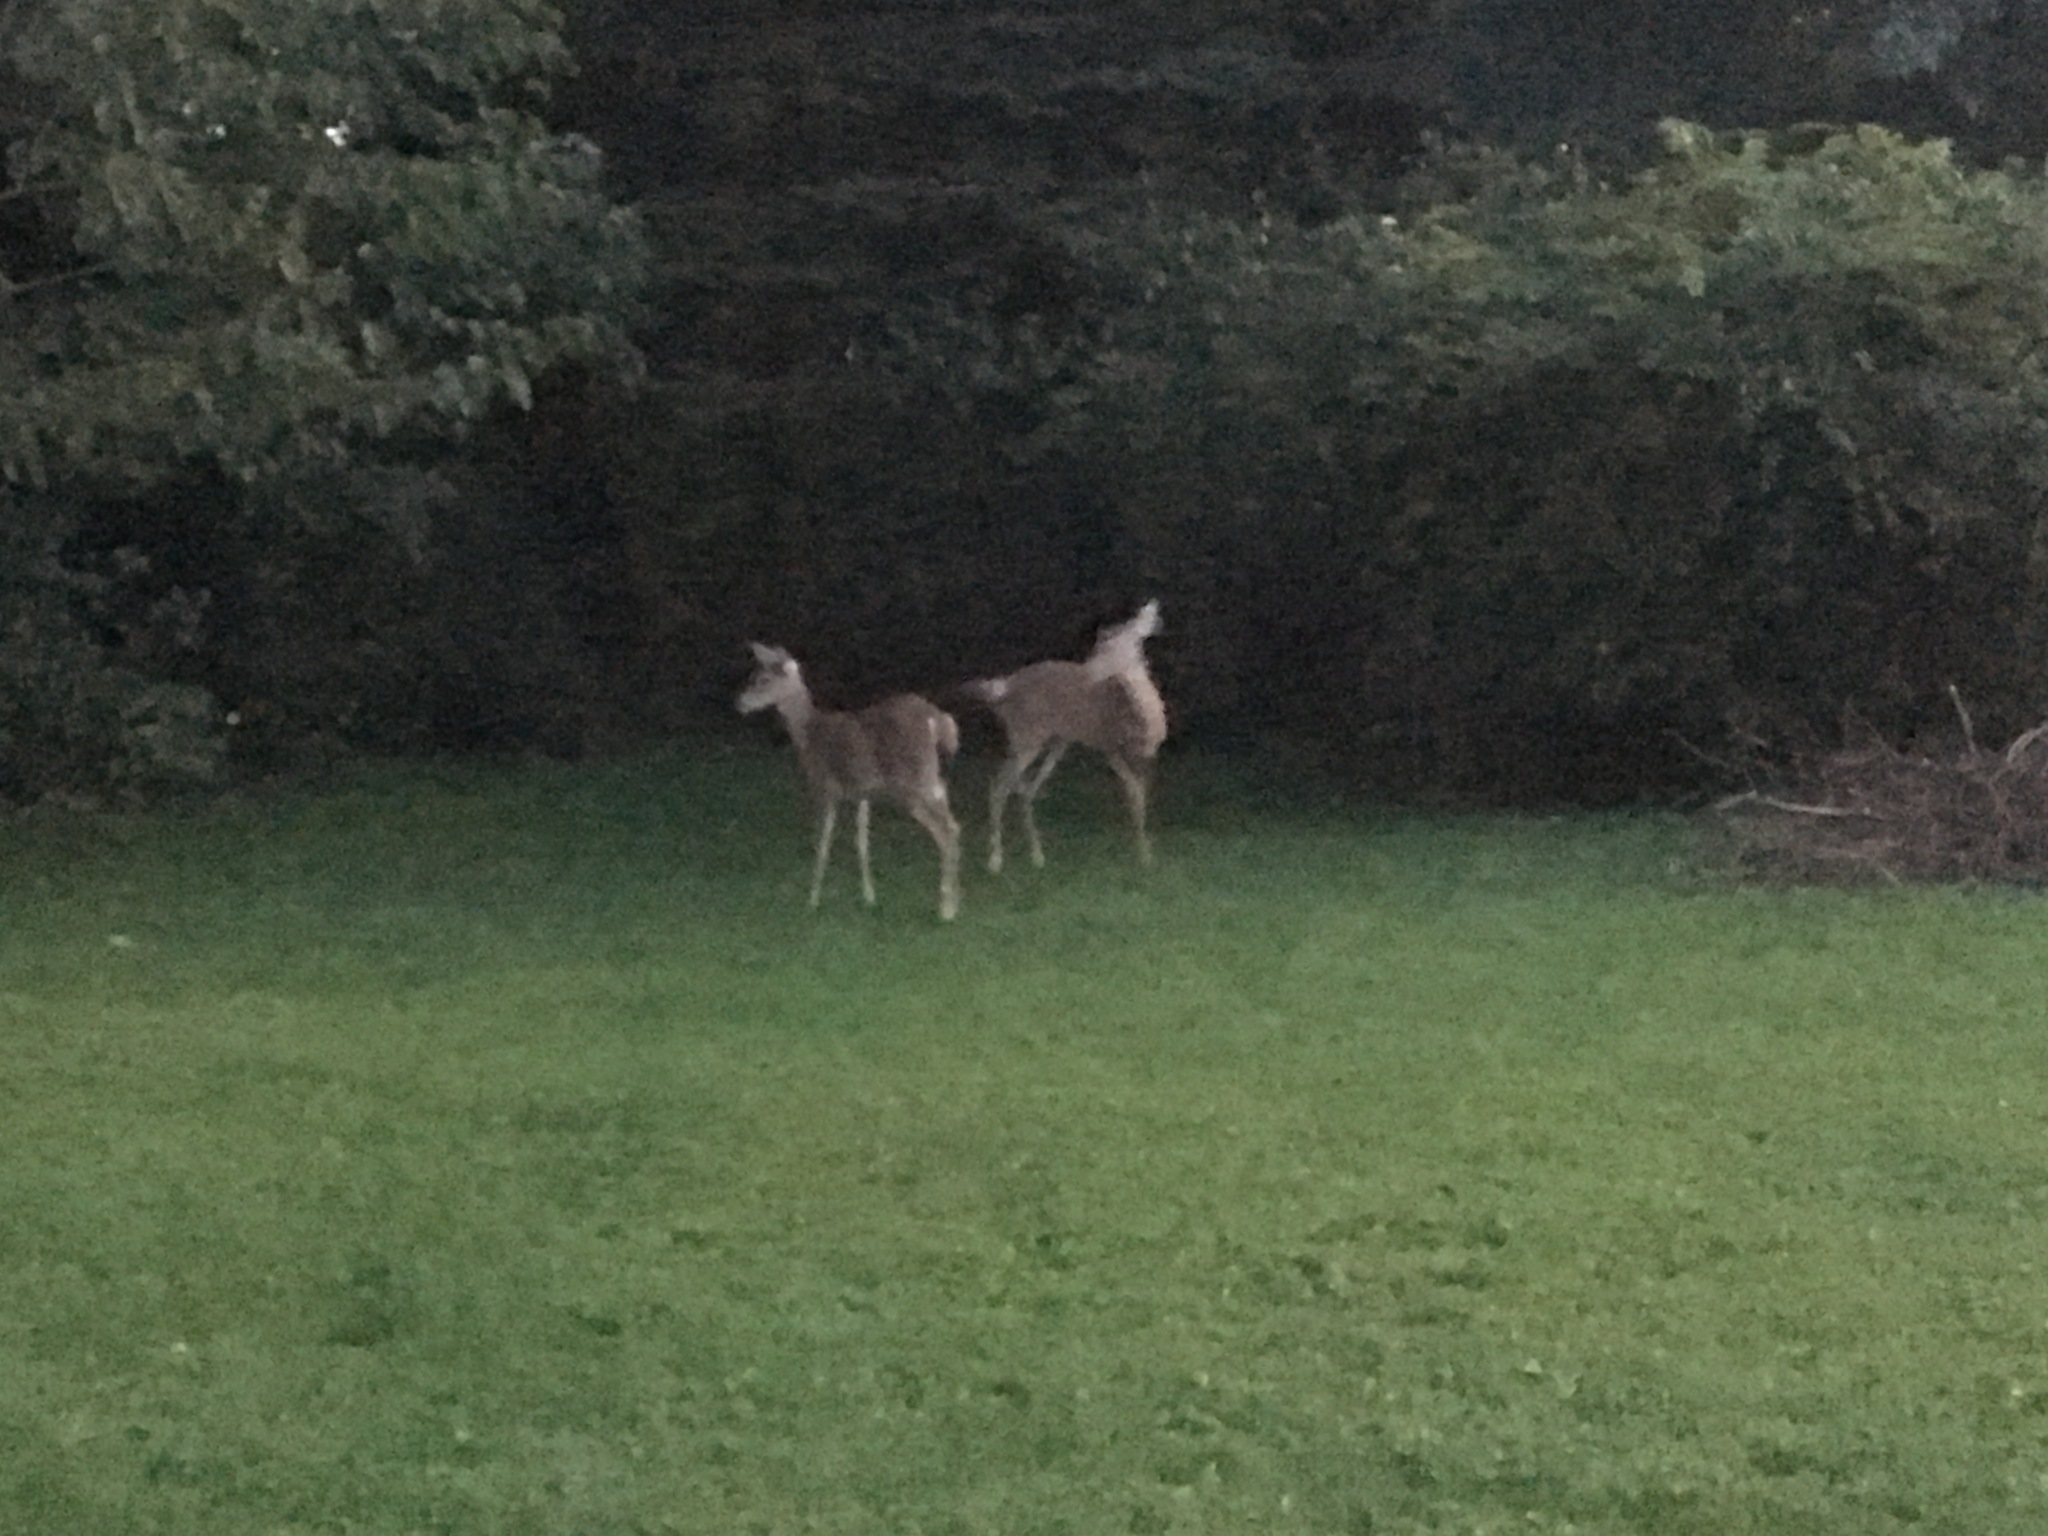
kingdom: Animalia
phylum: Chordata
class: Mammalia
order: Artiodactyla
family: Cervidae
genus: Odocoileus
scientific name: Odocoileus virginianus
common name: White-tailed deer
